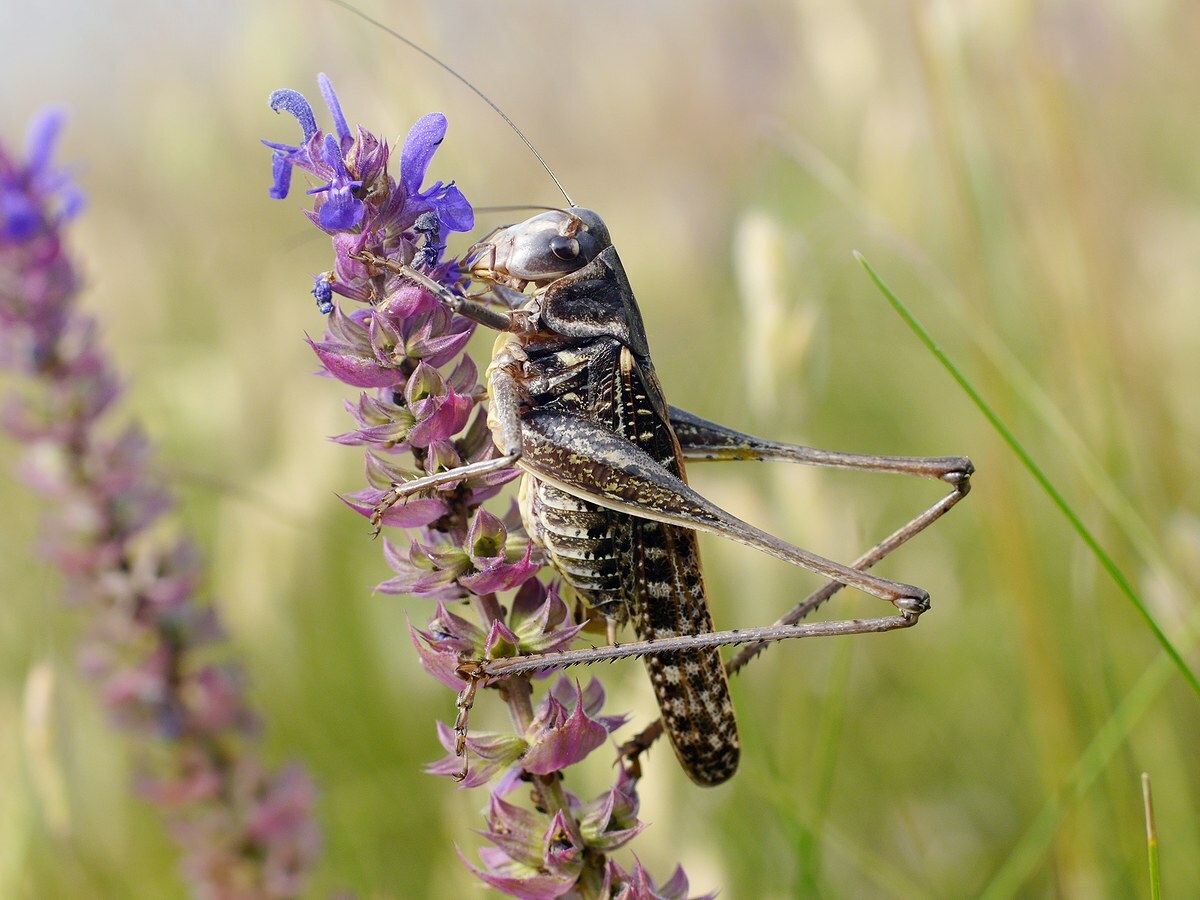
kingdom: Animalia
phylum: Arthropoda
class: Insecta
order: Orthoptera
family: Tettigoniidae
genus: Decticus
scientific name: Decticus verrucivorus
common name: Wart-biter
